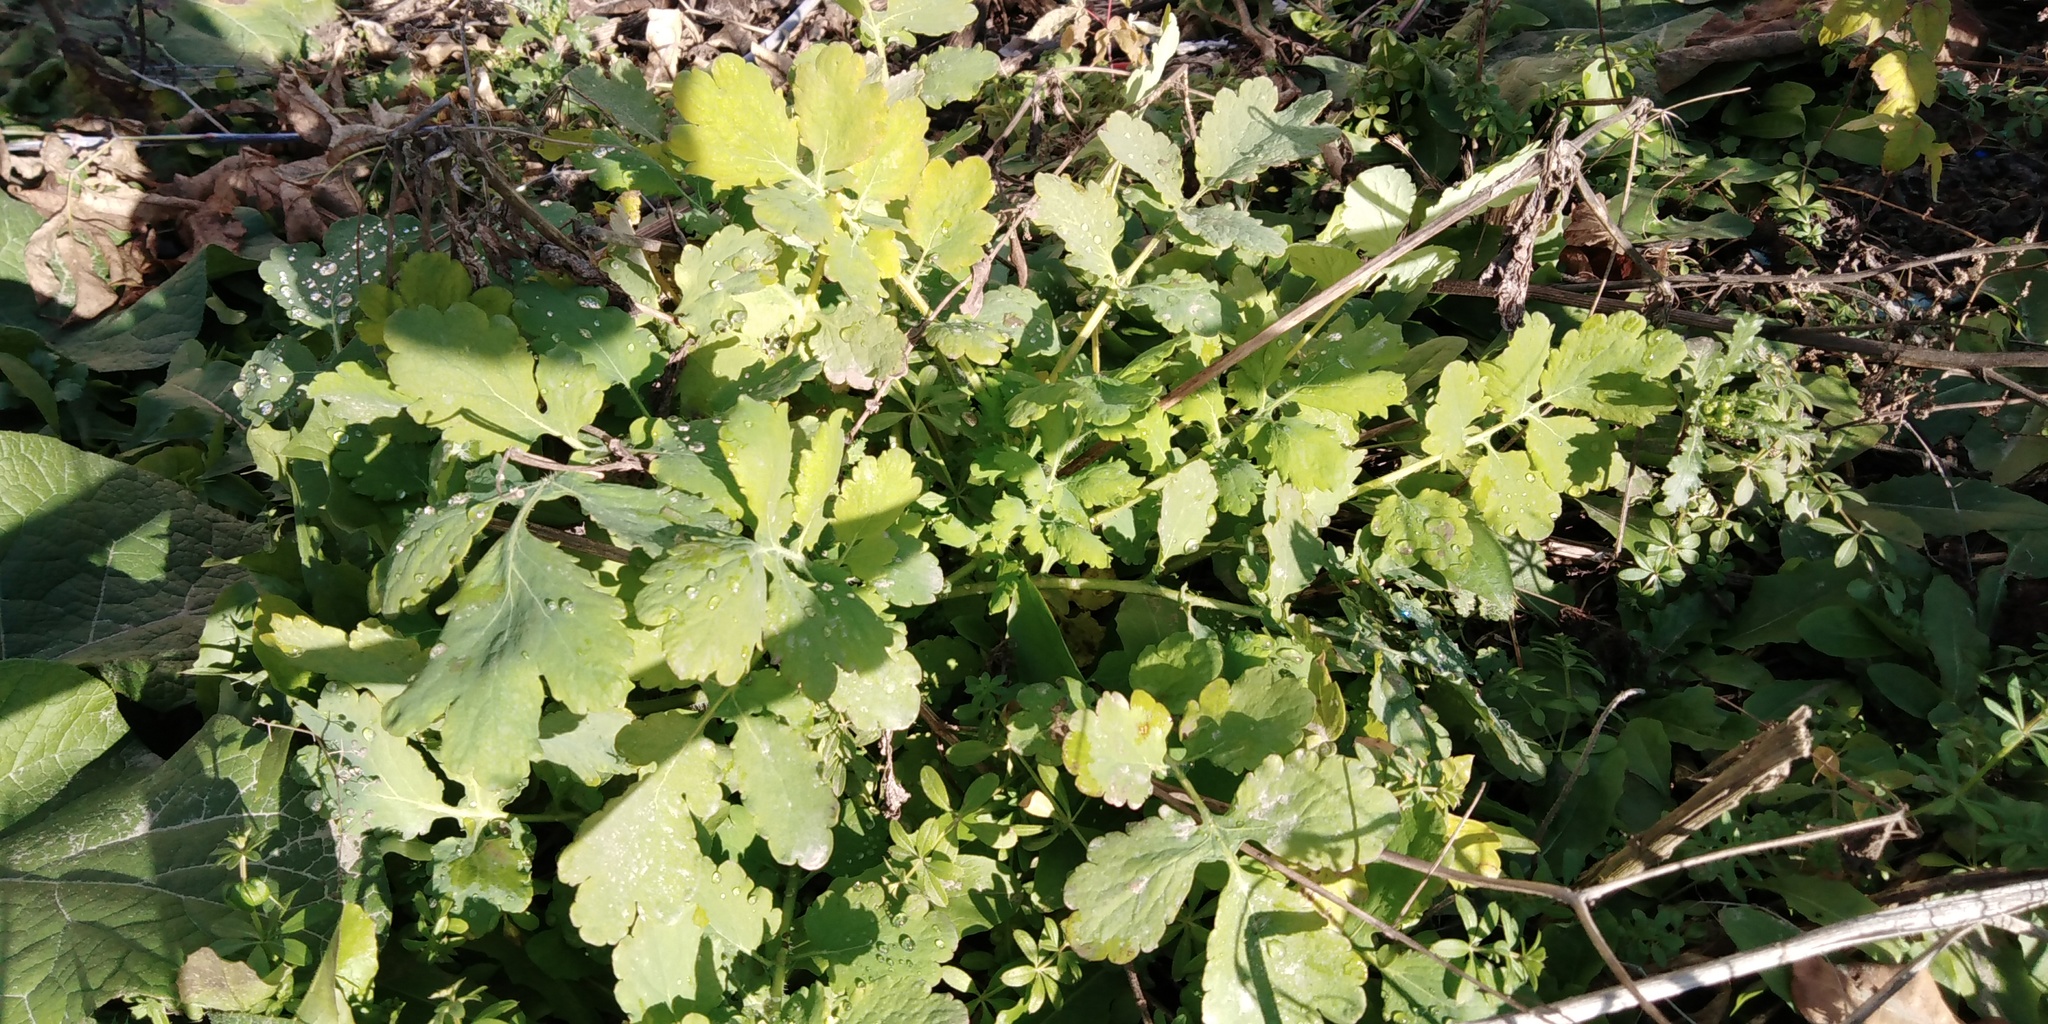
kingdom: Plantae
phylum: Tracheophyta
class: Magnoliopsida
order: Ranunculales
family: Papaveraceae
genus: Chelidonium
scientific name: Chelidonium majus
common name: Greater celandine
